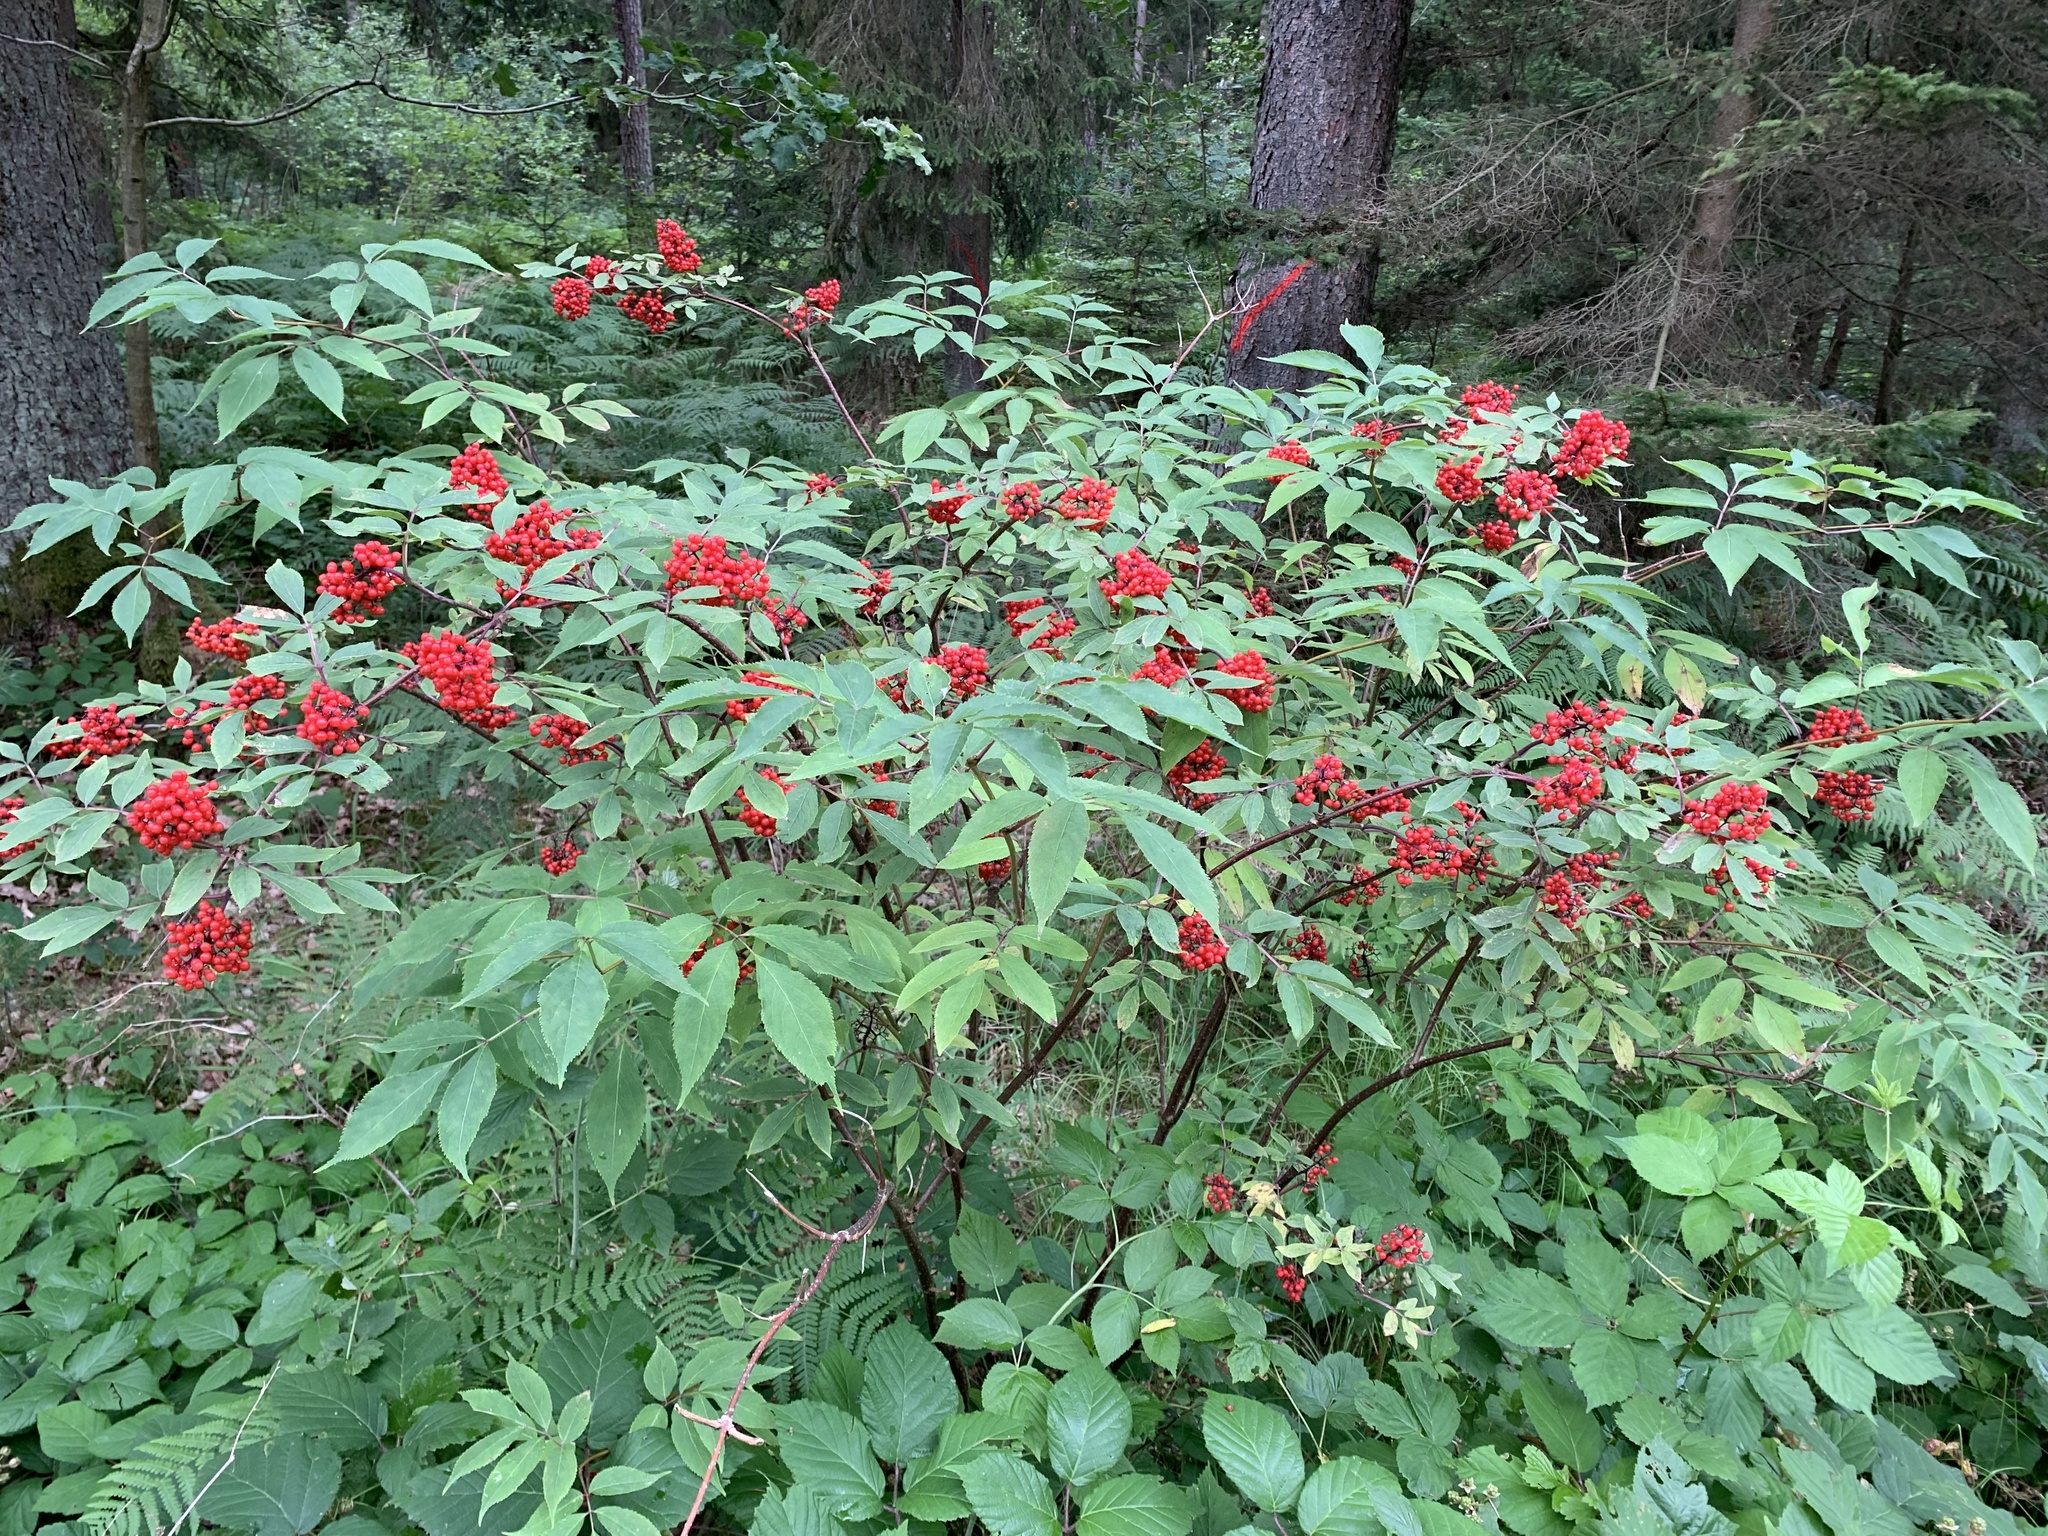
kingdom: Plantae
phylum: Tracheophyta
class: Magnoliopsida
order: Dipsacales
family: Viburnaceae
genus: Sambucus
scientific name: Sambucus racemosa
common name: Red-berried elder
